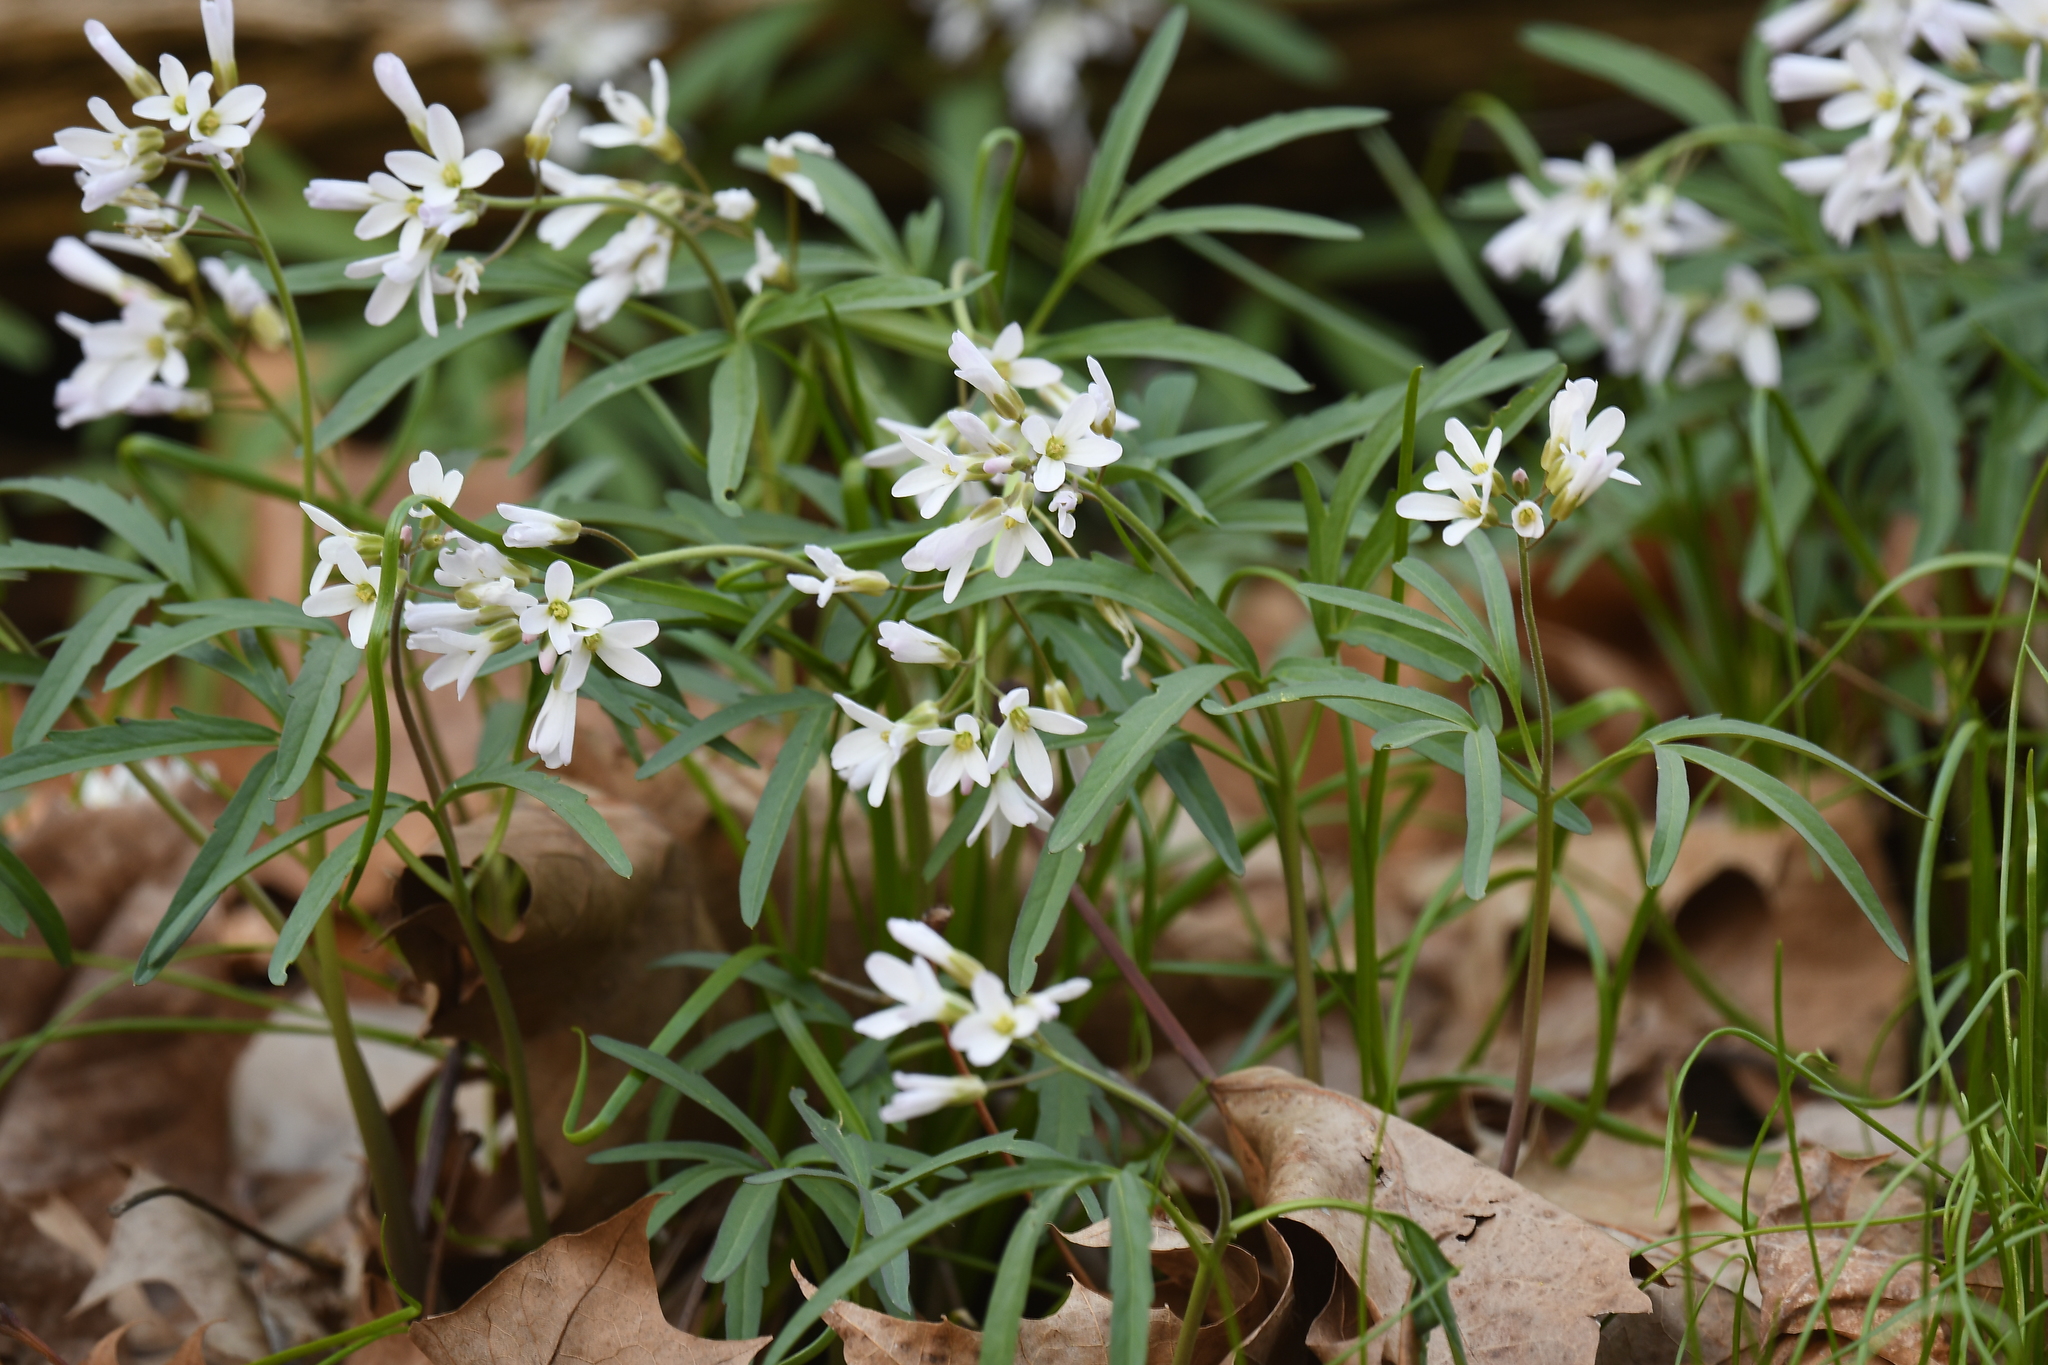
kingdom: Plantae
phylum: Tracheophyta
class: Magnoliopsida
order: Brassicales
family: Brassicaceae
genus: Cardamine
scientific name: Cardamine concatenata
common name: Cut-leaf toothcup
